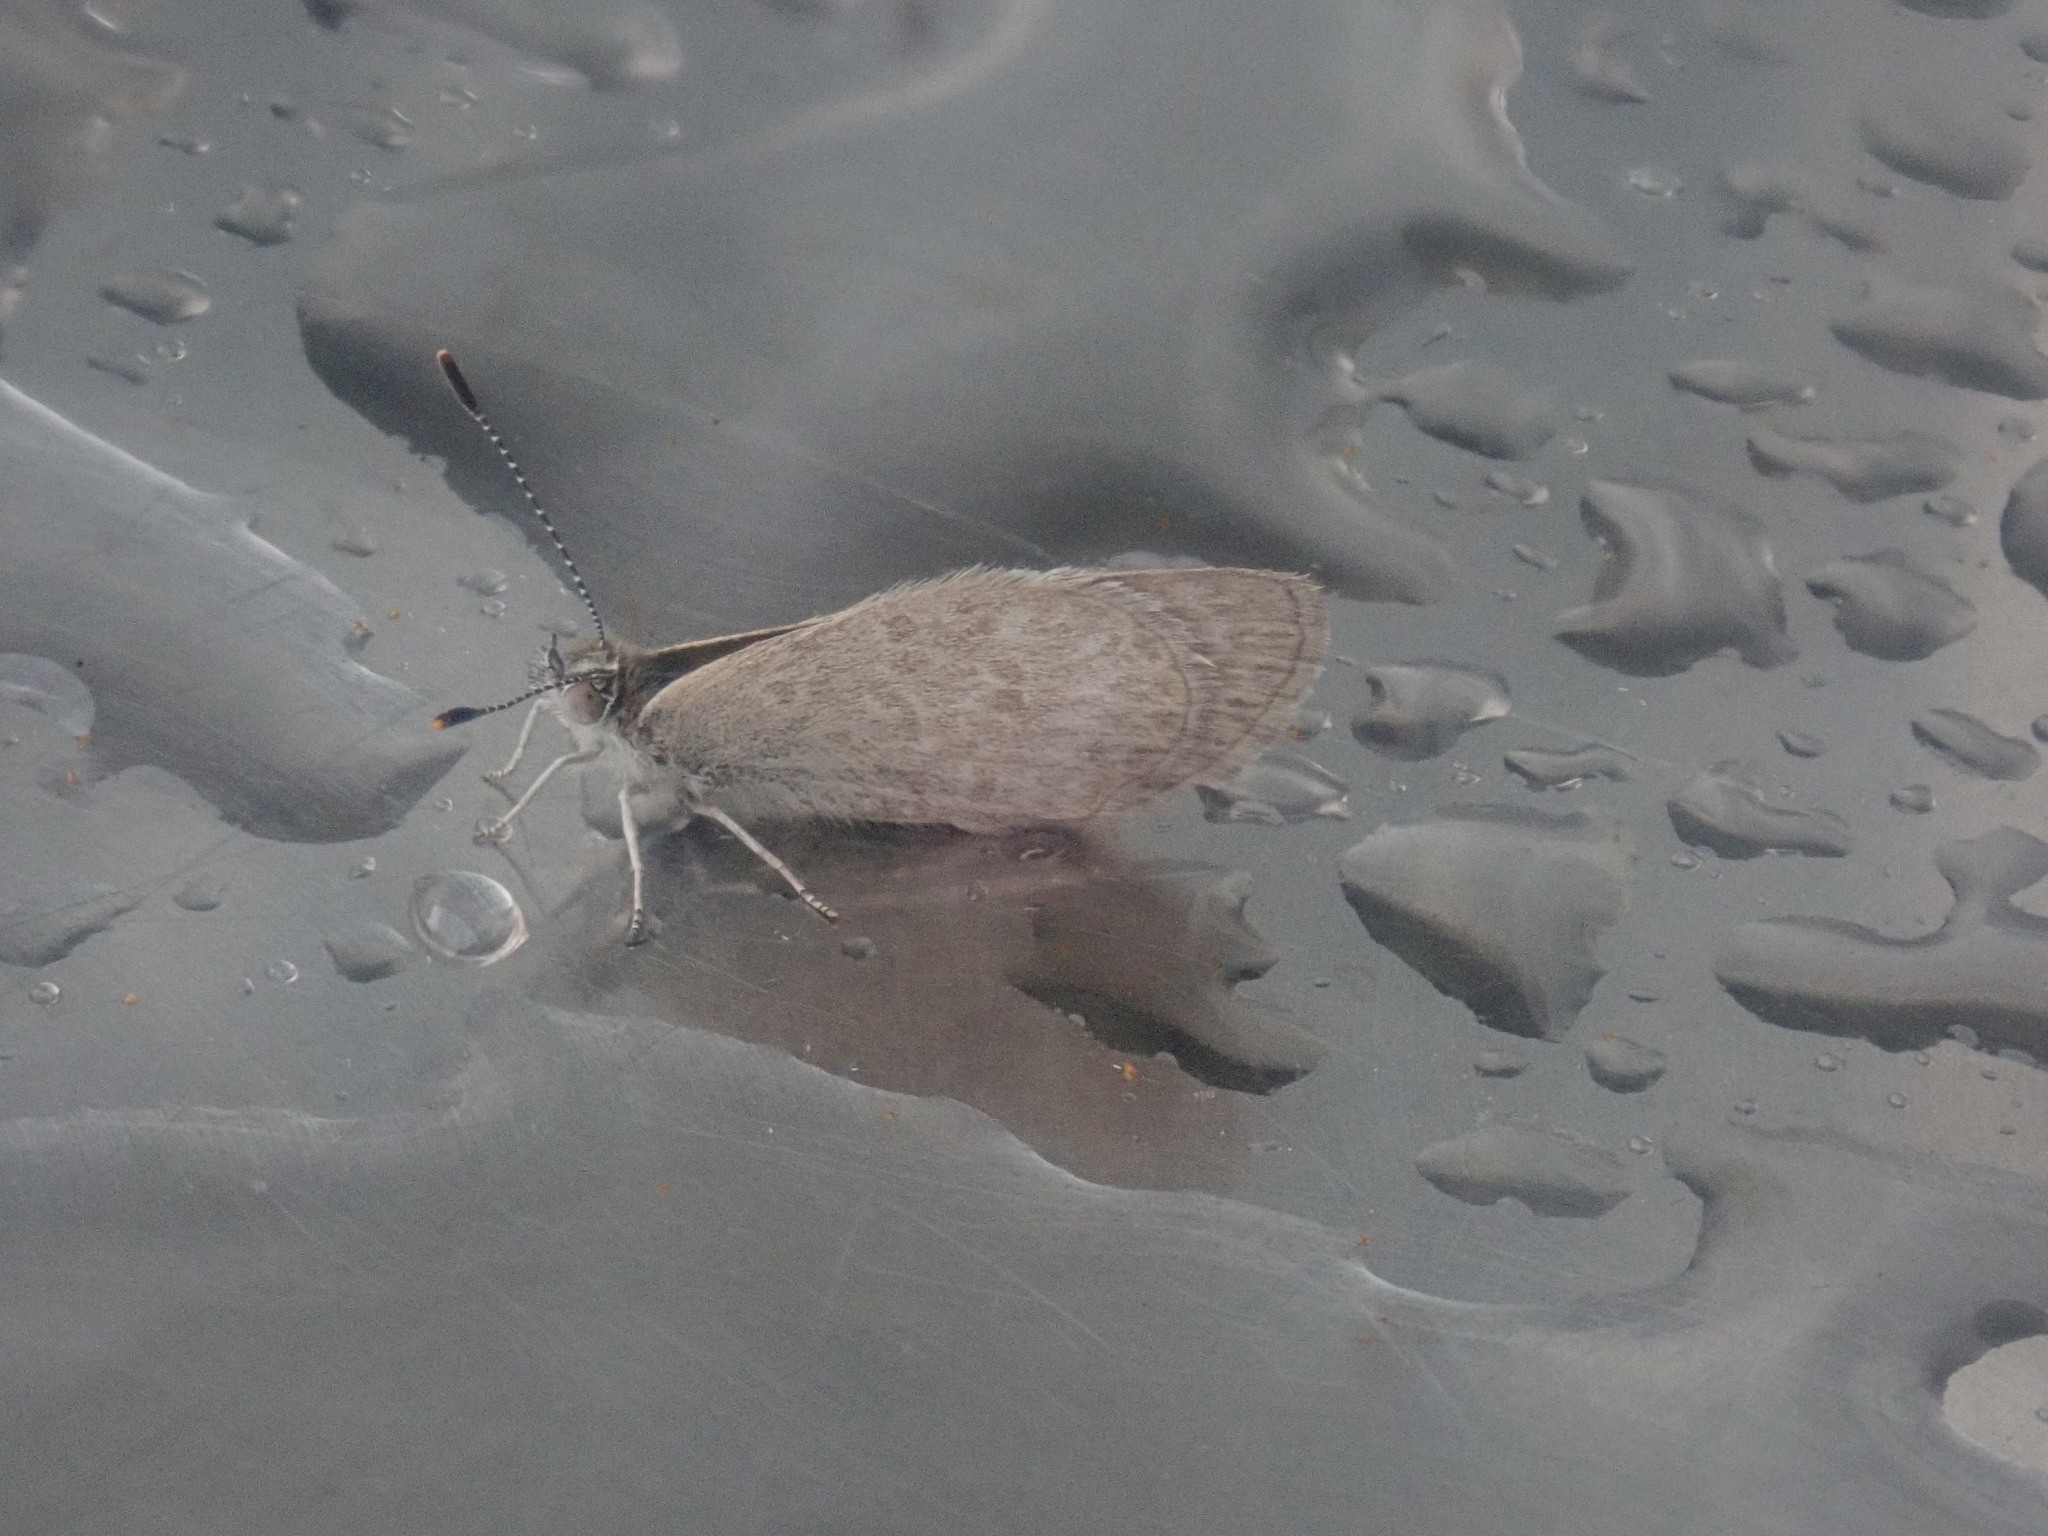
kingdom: Animalia
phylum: Arthropoda
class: Insecta
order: Lepidoptera
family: Lycaenidae
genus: Zizina
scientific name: Zizina labradus
